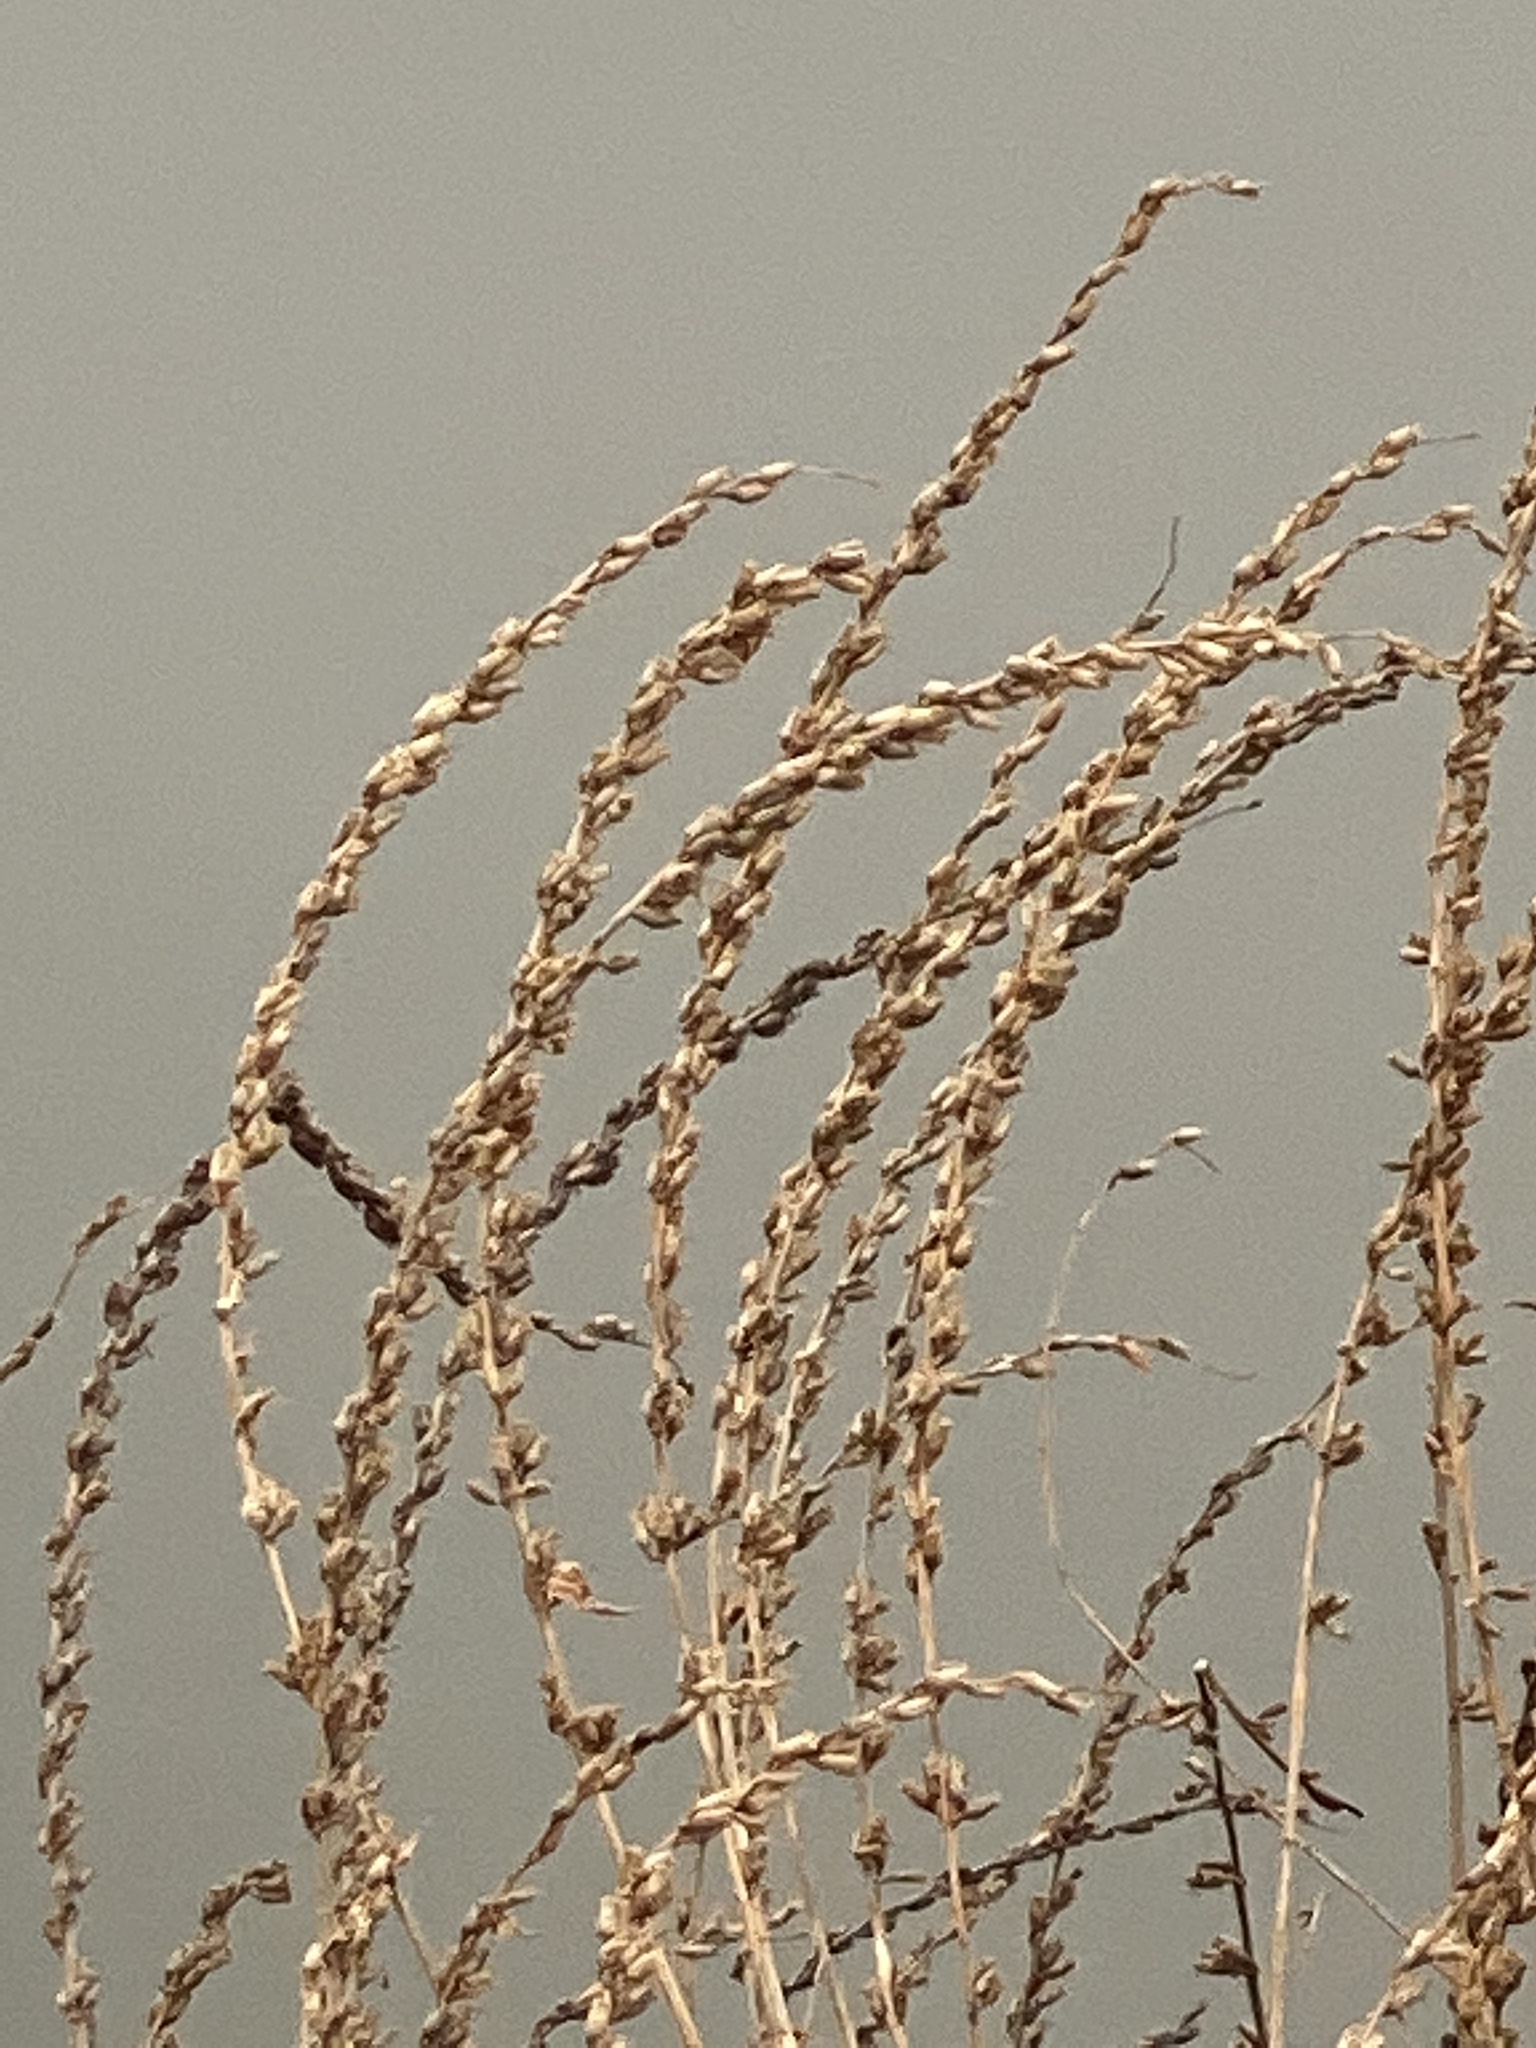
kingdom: Plantae
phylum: Tracheophyta
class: Magnoliopsida
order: Myrtales
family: Lythraceae
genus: Lythrum
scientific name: Lythrum salicaria
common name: Purple loosestrife
